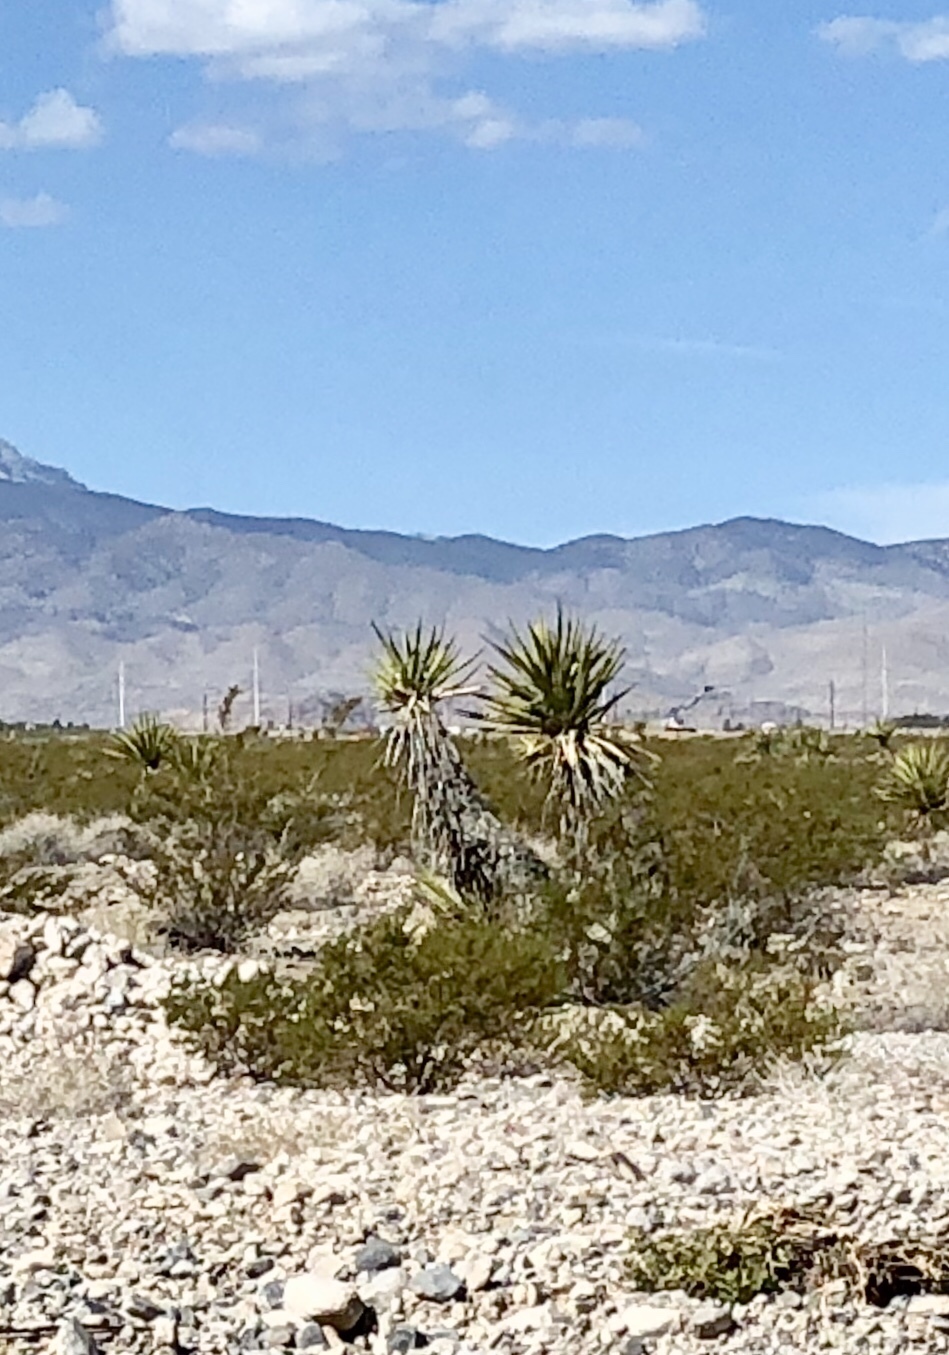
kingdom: Plantae
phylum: Tracheophyta
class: Liliopsida
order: Asparagales
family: Asparagaceae
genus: Yucca
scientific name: Yucca schidigera
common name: Mojave yucca
